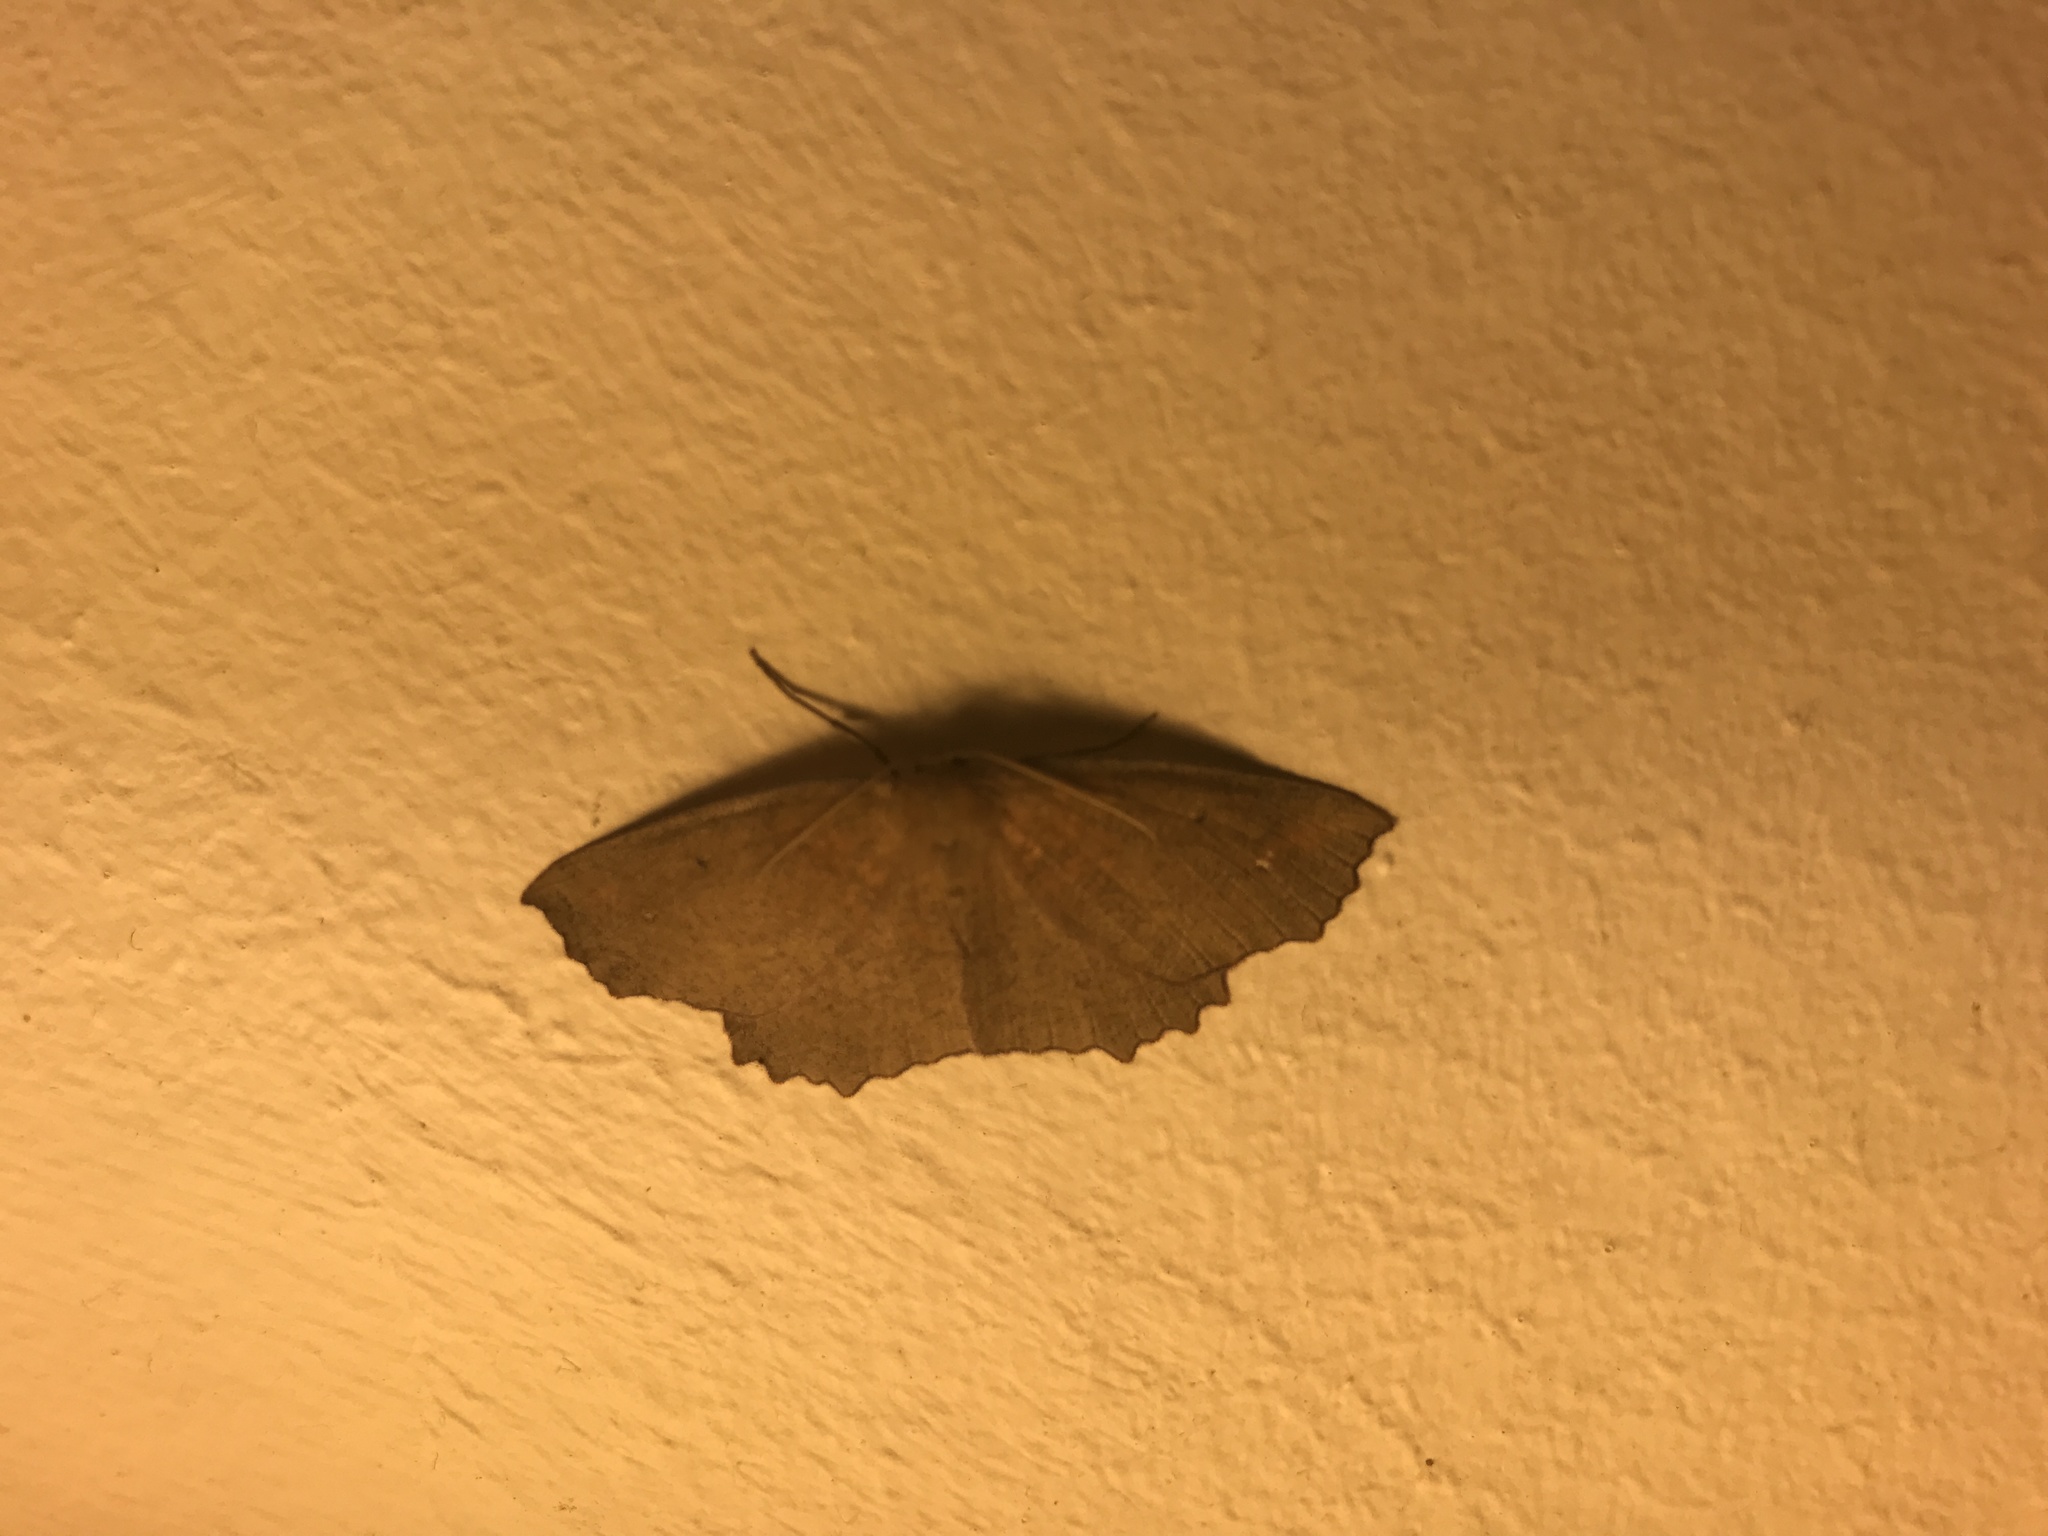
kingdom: Animalia
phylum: Arthropoda
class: Insecta
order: Lepidoptera
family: Geometridae
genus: Xyridacma
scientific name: Xyridacma ustaria
